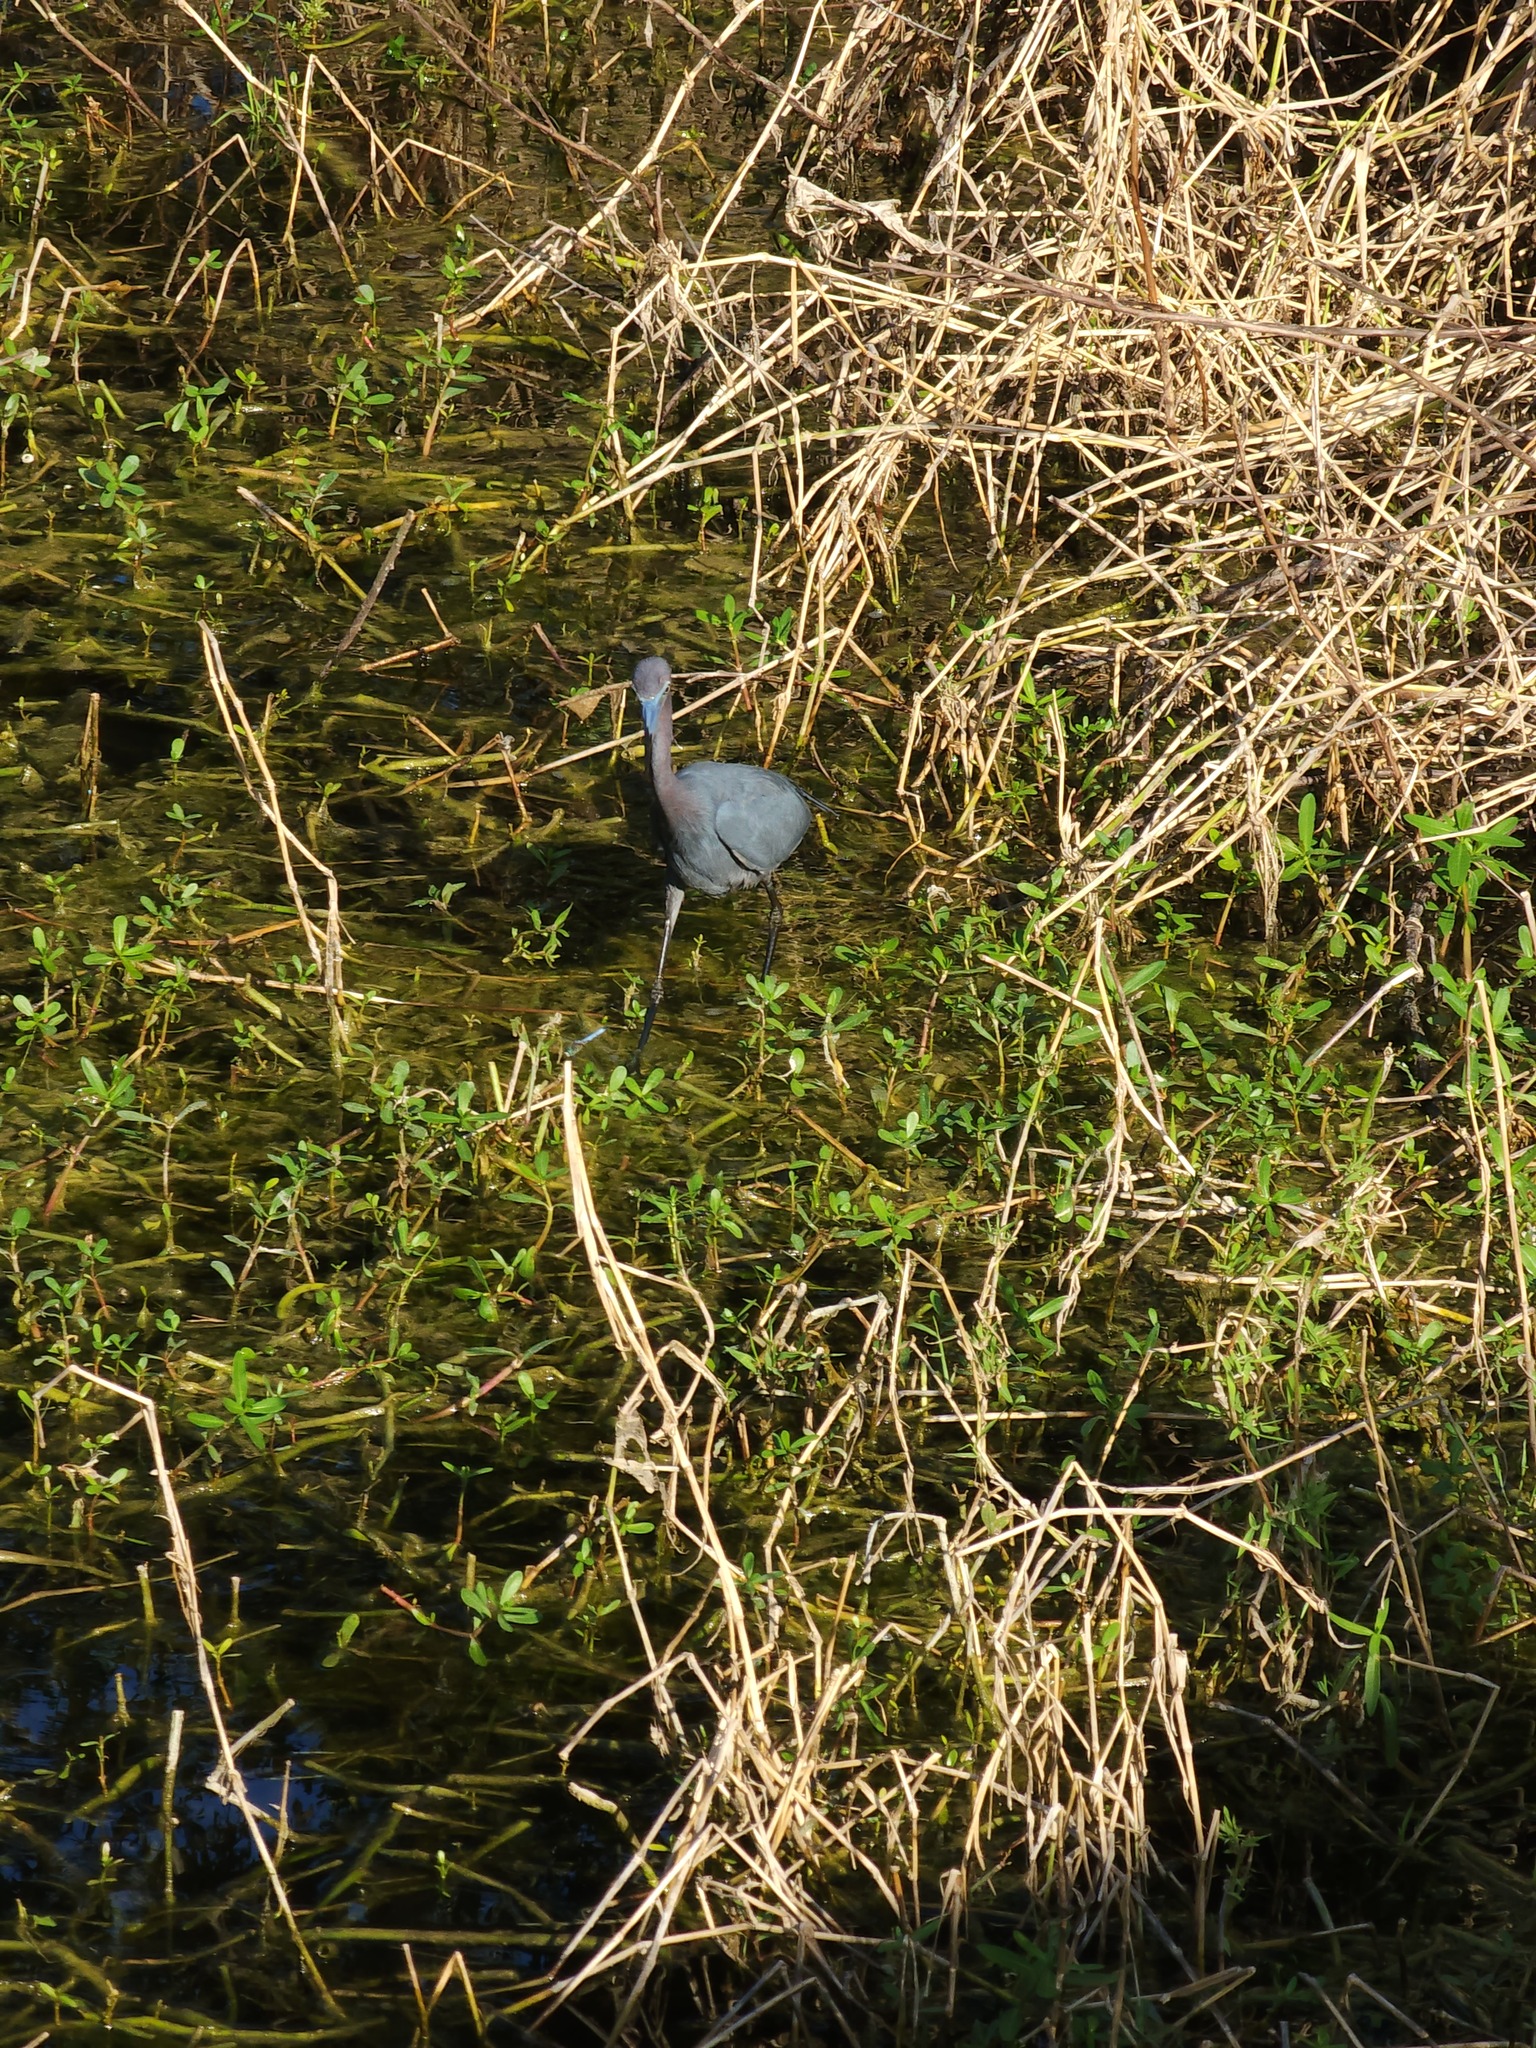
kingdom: Animalia
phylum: Chordata
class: Aves
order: Pelecaniformes
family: Ardeidae
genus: Egretta
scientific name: Egretta caerulea
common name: Little blue heron
